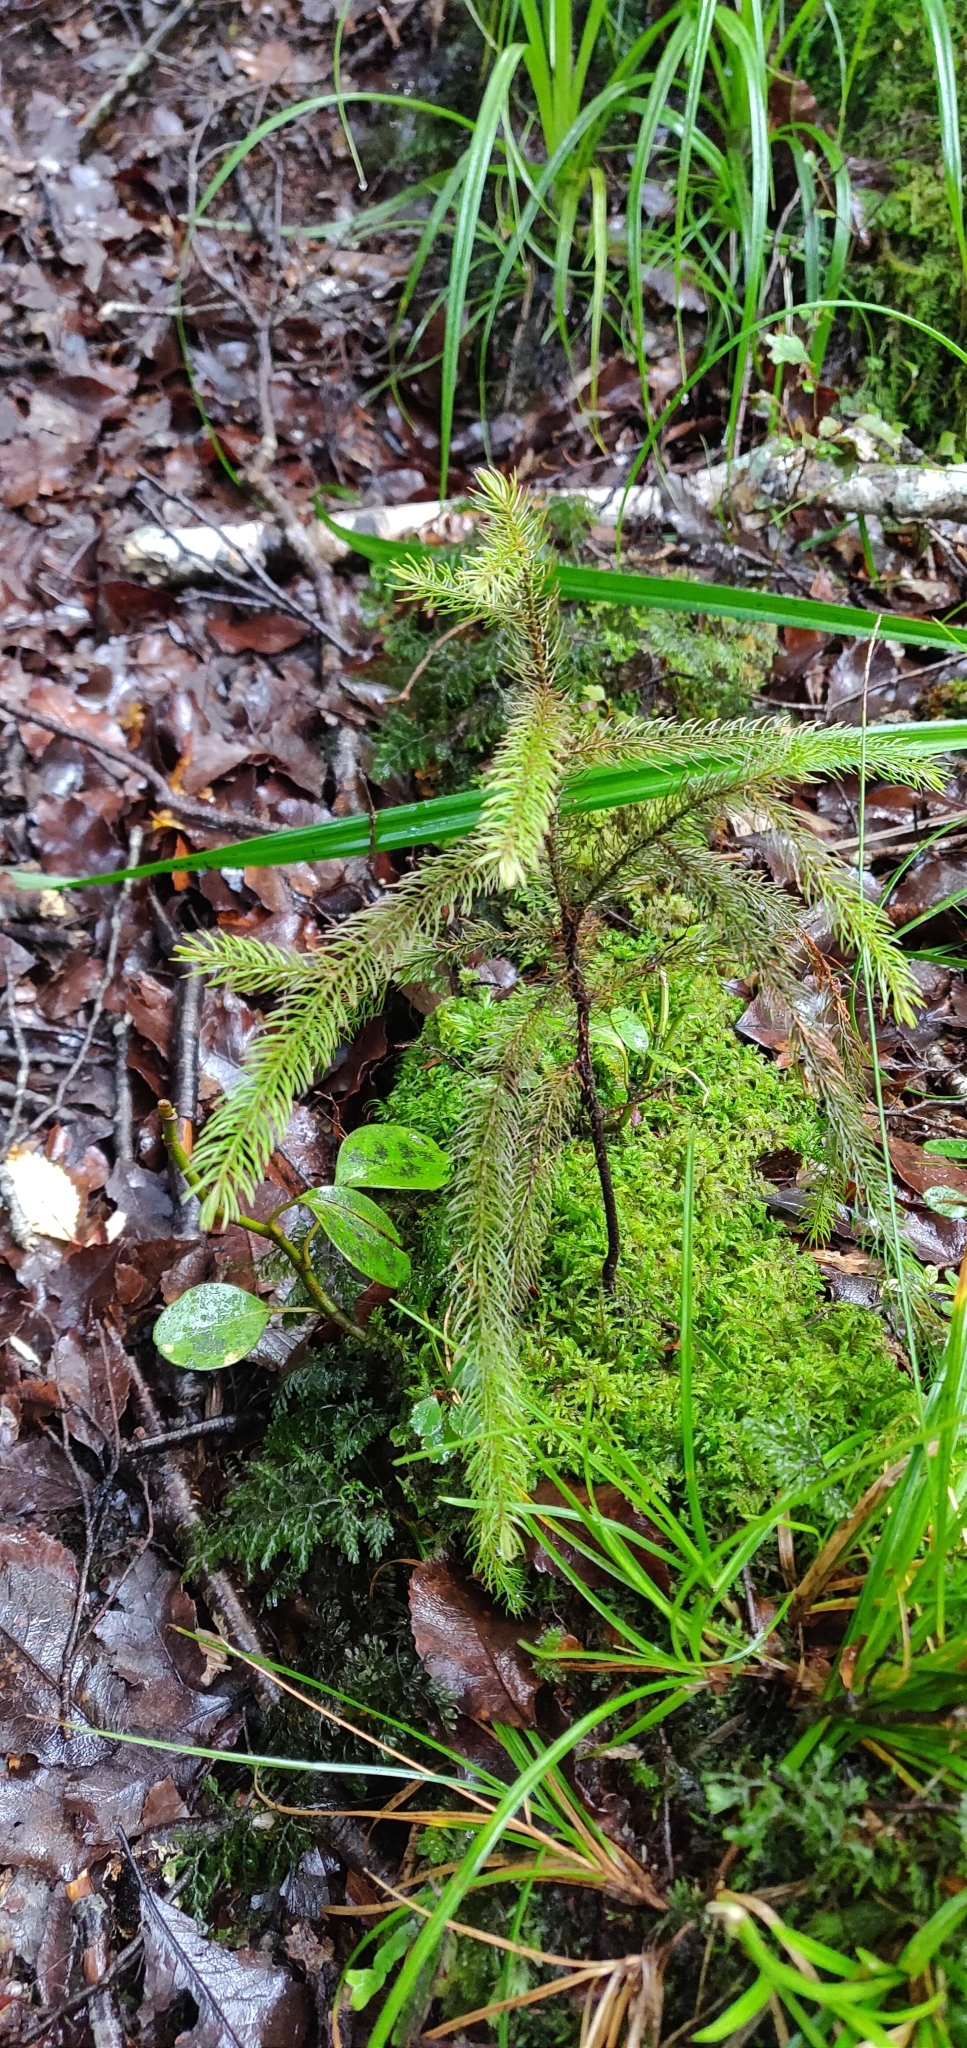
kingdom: Plantae
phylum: Tracheophyta
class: Pinopsida
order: Pinales
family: Podocarpaceae
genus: Dacrydium
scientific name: Dacrydium cupressinum
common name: Red pine
